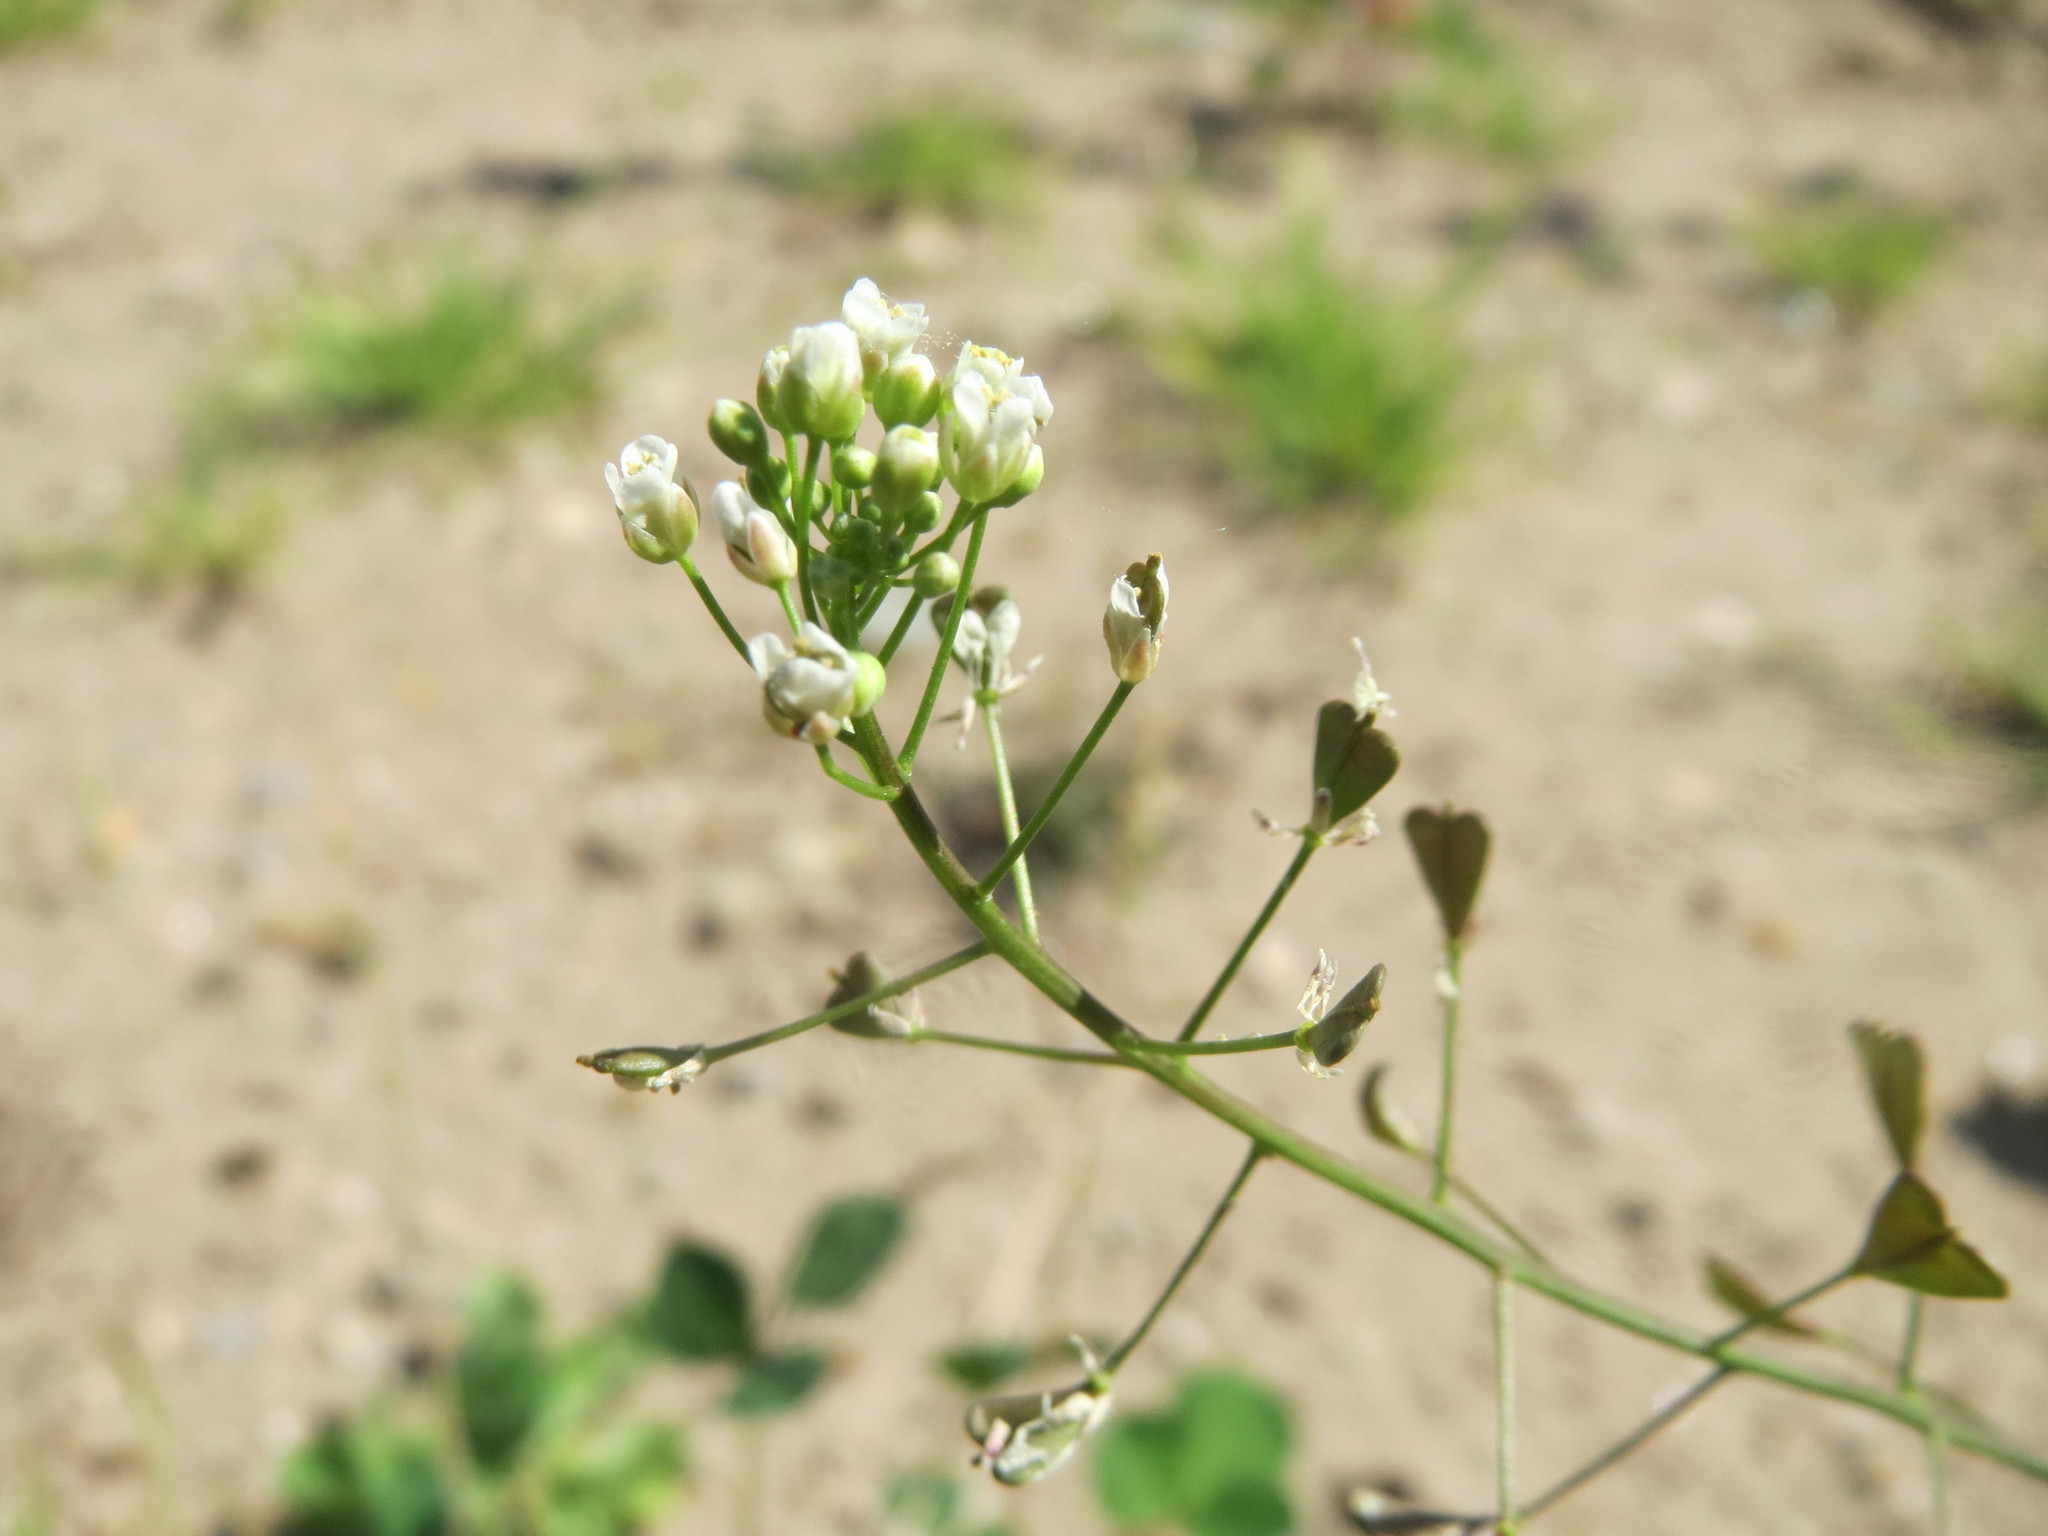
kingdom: Plantae
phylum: Tracheophyta
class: Magnoliopsida
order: Brassicales
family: Brassicaceae
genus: Capsella
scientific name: Capsella bursa-pastoris
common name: Shepherd's purse
